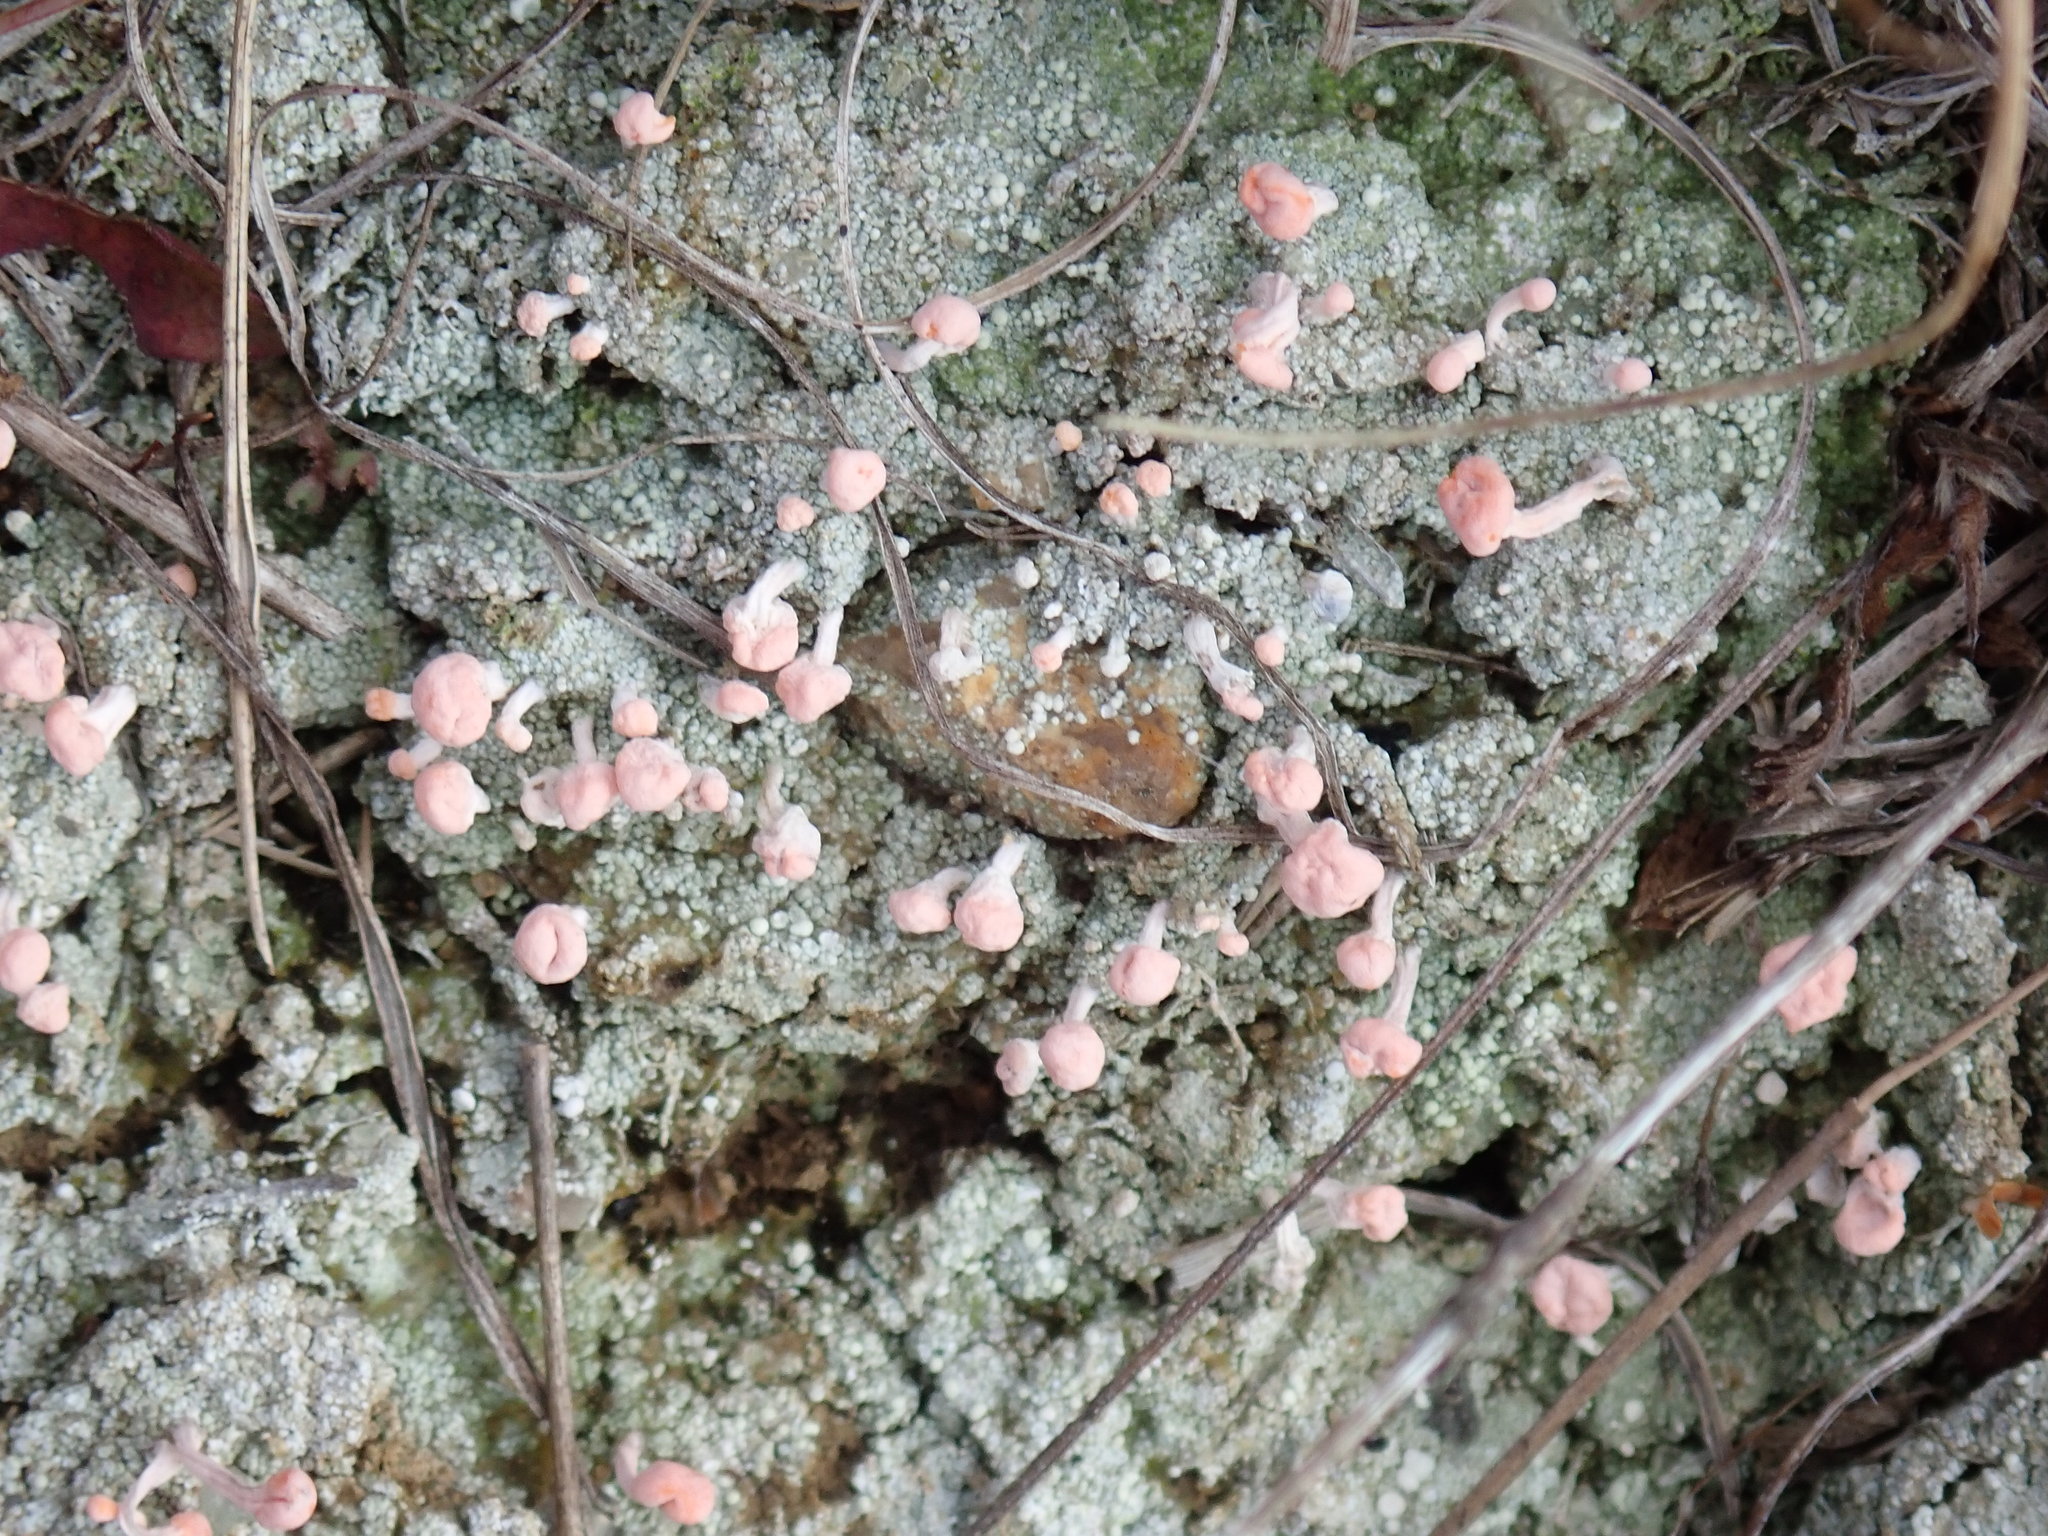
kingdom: Fungi
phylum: Ascomycota
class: Lecanoromycetes
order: Pertusariales
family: Icmadophilaceae
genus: Dibaeis
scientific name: Dibaeis baeomyces
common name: Pink earth lichen
